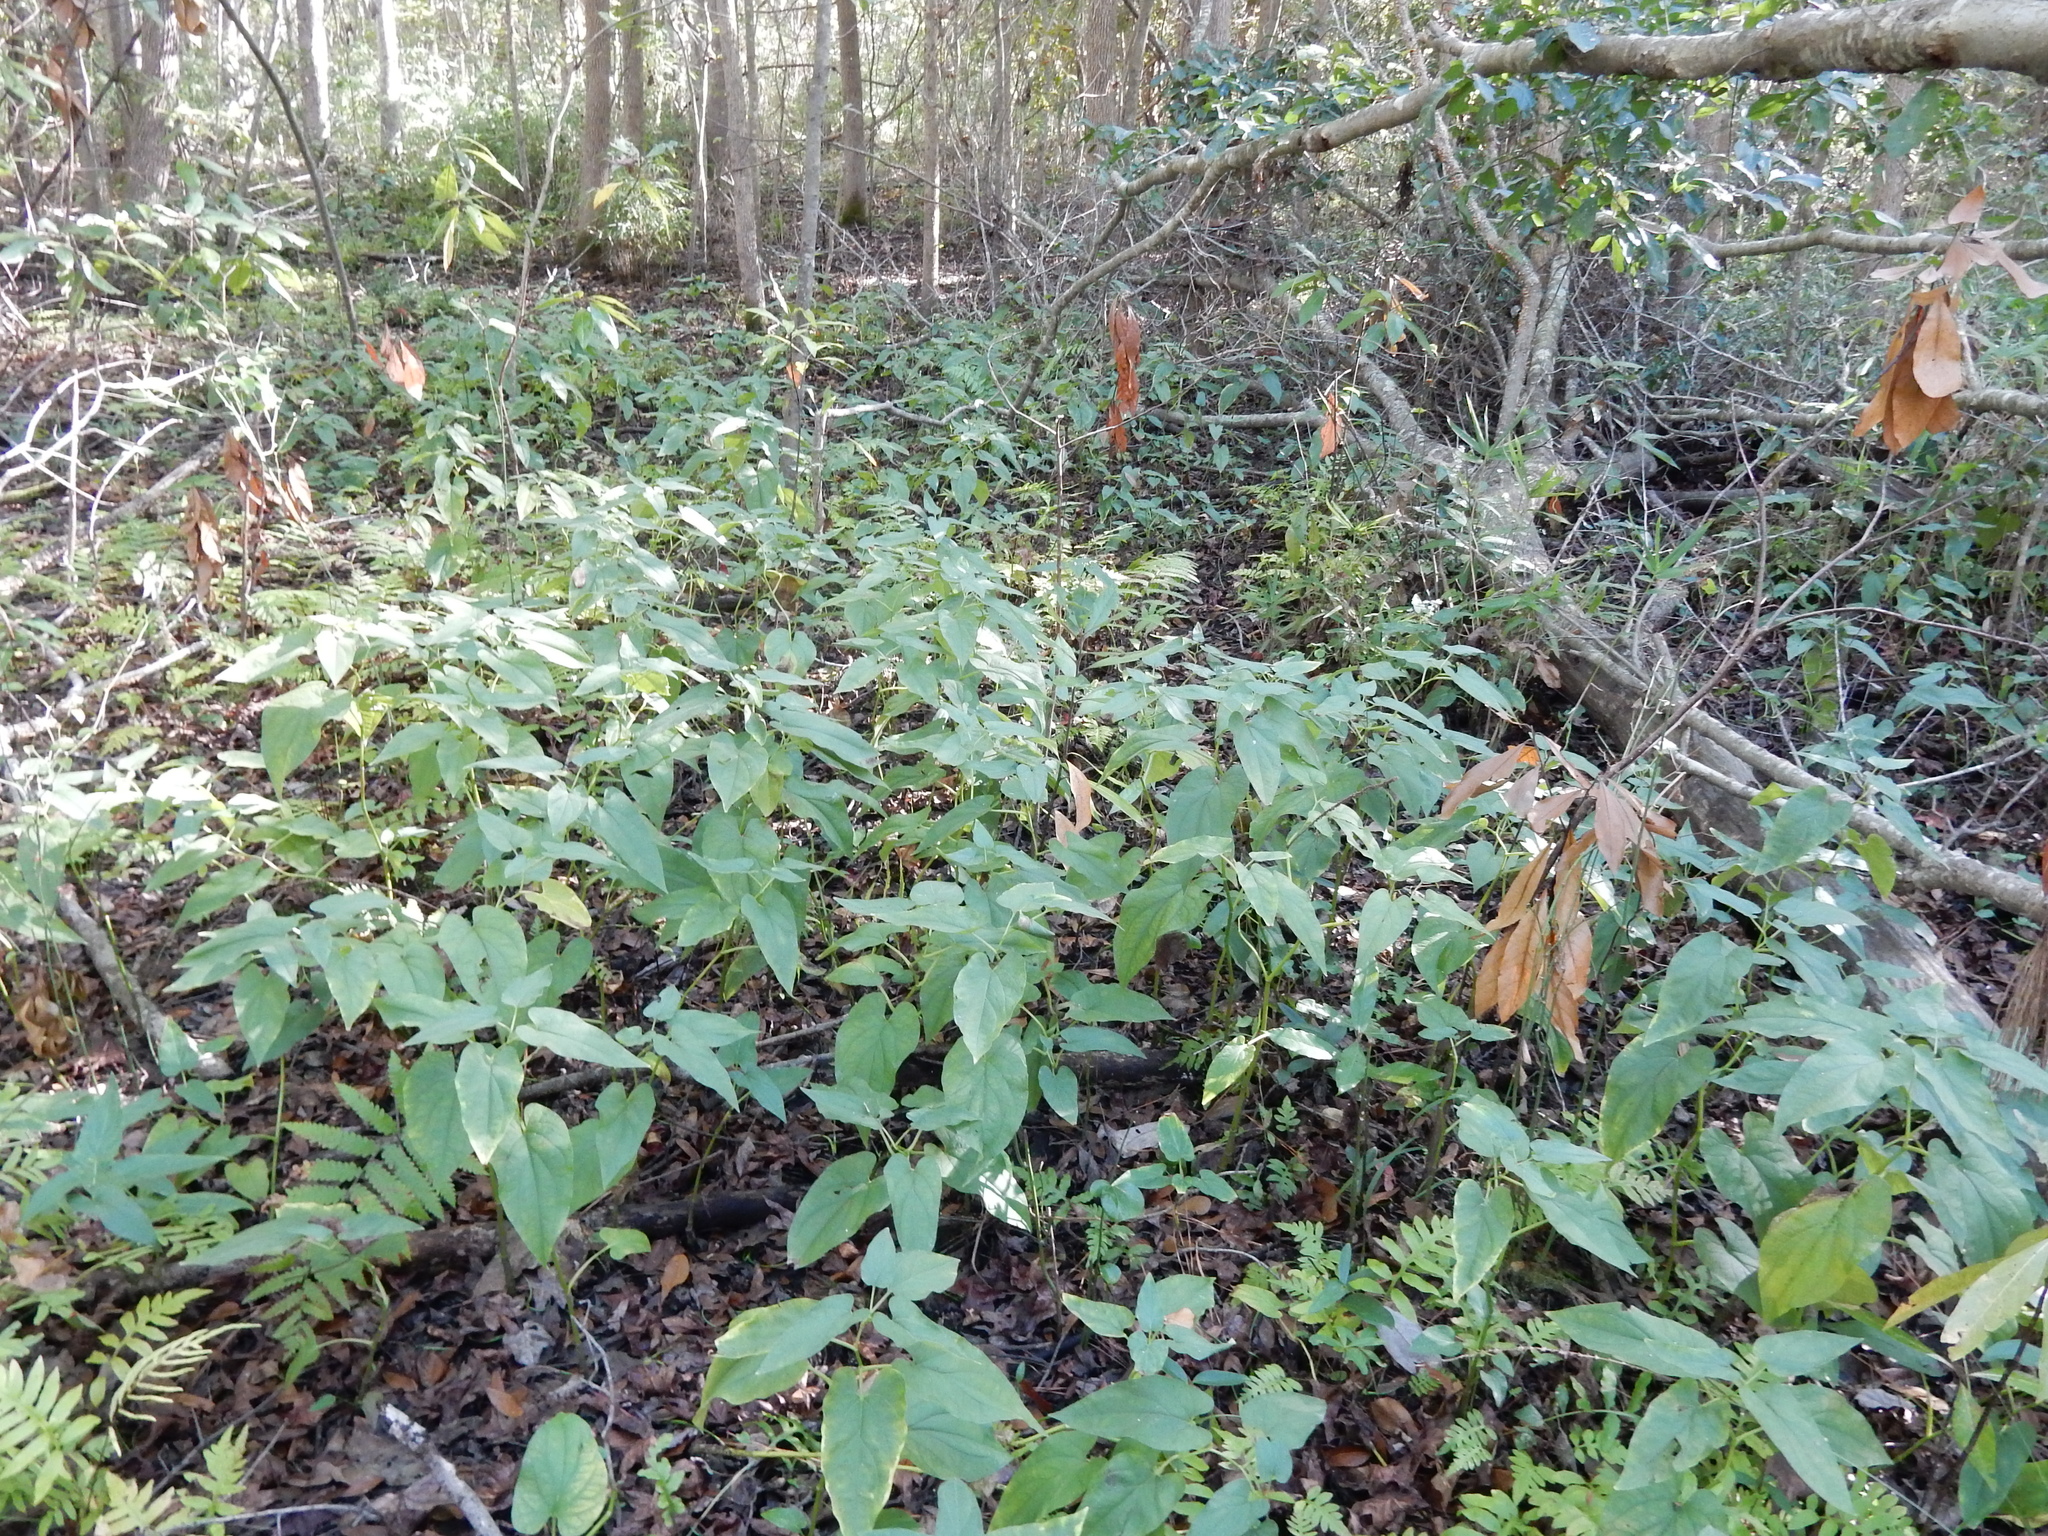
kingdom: Plantae
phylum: Tracheophyta
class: Magnoliopsida
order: Piperales
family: Saururaceae
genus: Saururus
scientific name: Saururus cernuus
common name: Lizard's-tail
